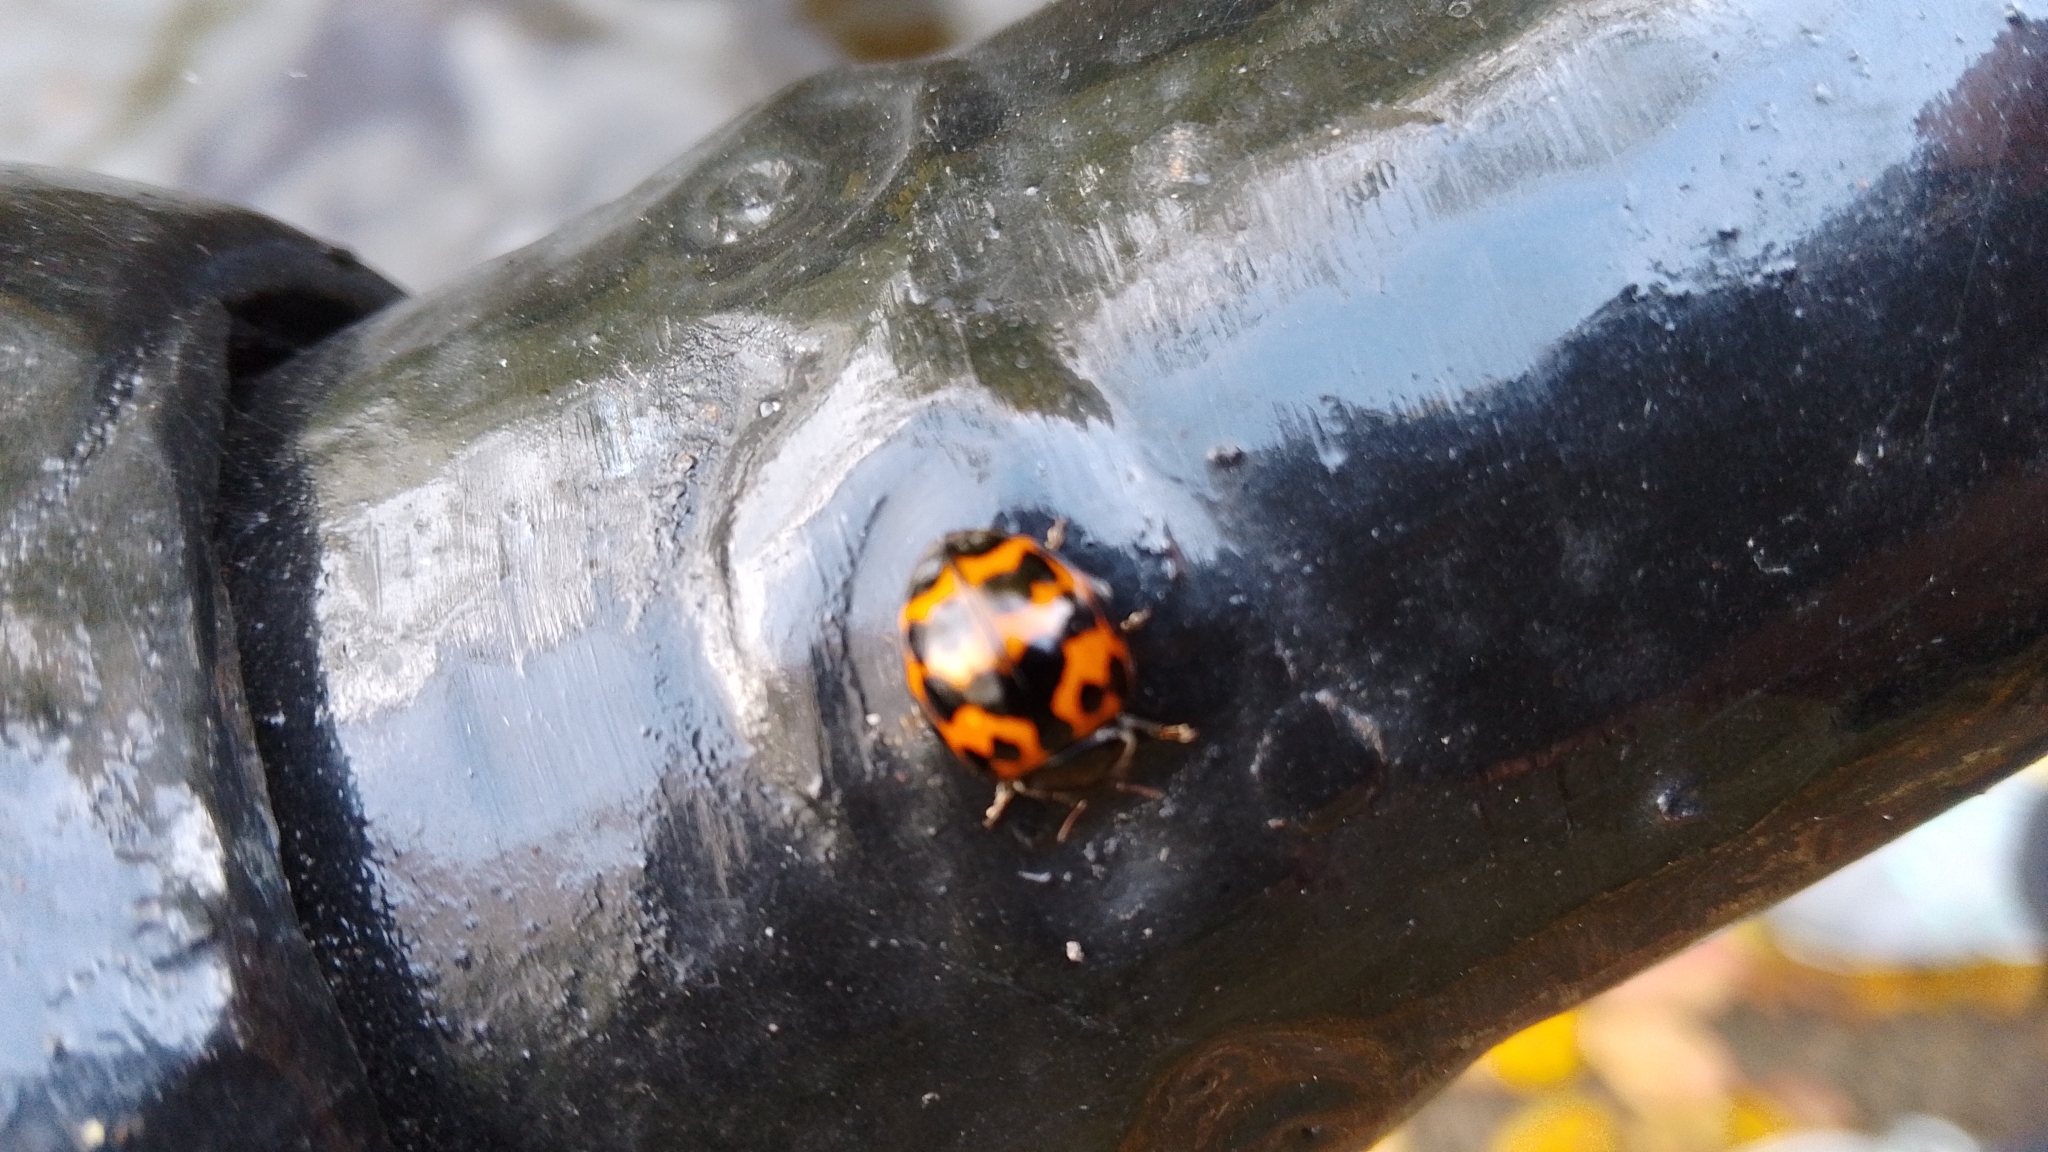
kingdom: Animalia
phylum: Arthropoda
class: Insecta
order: Coleoptera
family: Coccinellidae
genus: Harmonia
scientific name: Harmonia axyridis
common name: Harlequin ladybird
